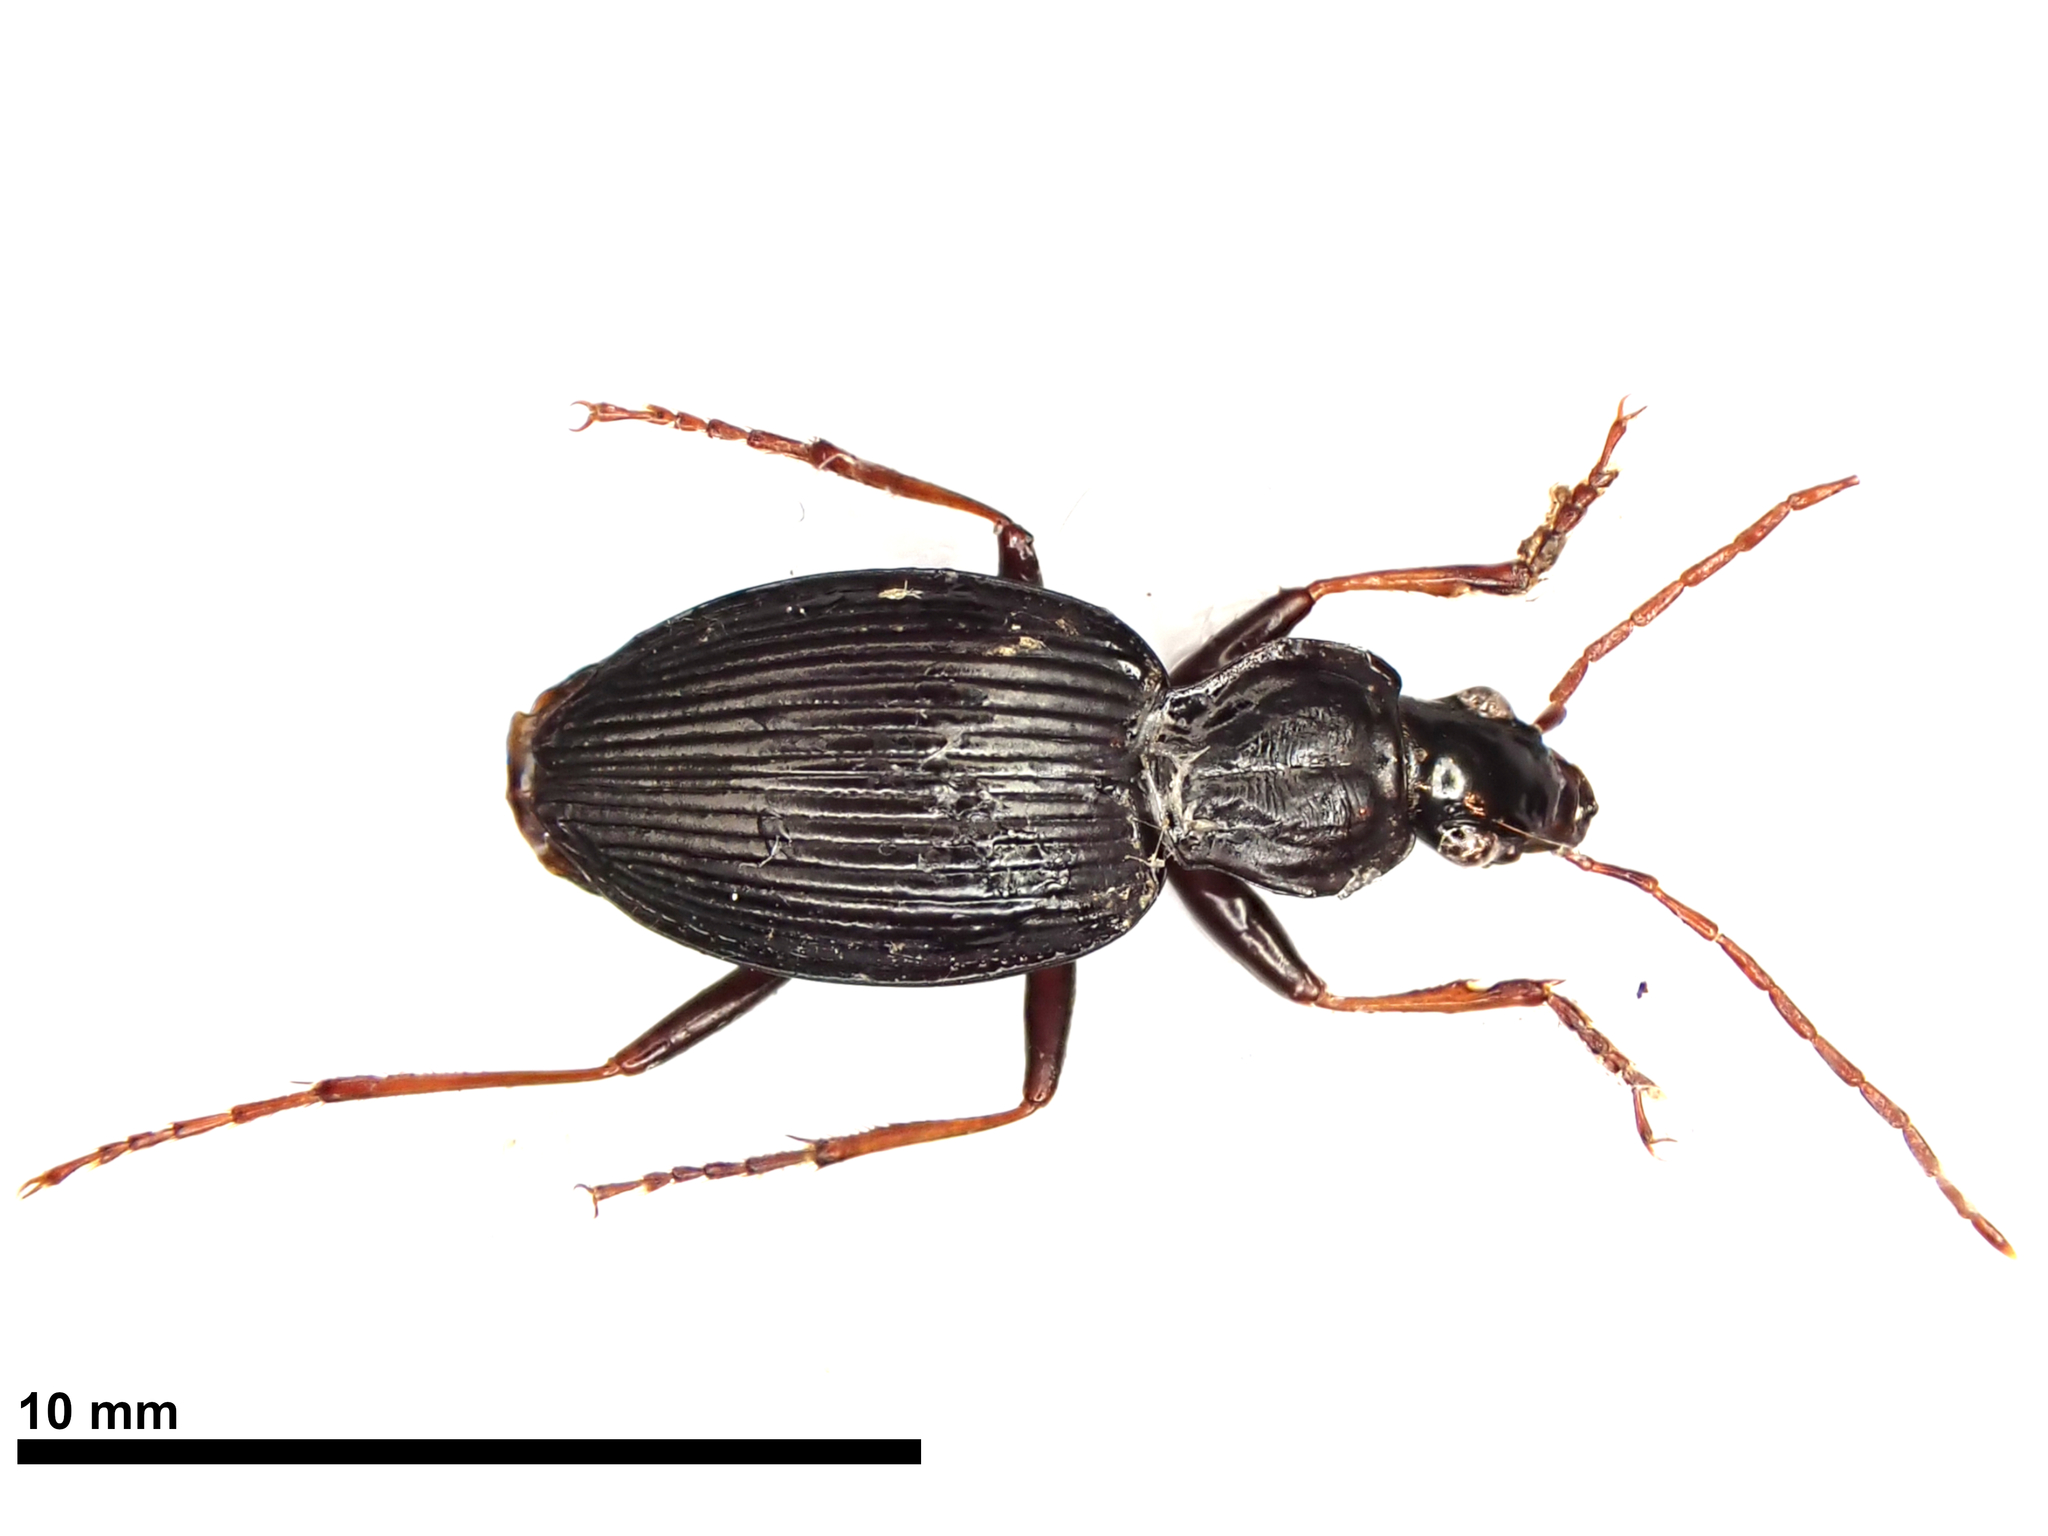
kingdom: Animalia
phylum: Arthropoda
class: Insecta
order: Coleoptera
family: Carabidae
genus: Ctenognathus
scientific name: Ctenognathus cardiophorus
